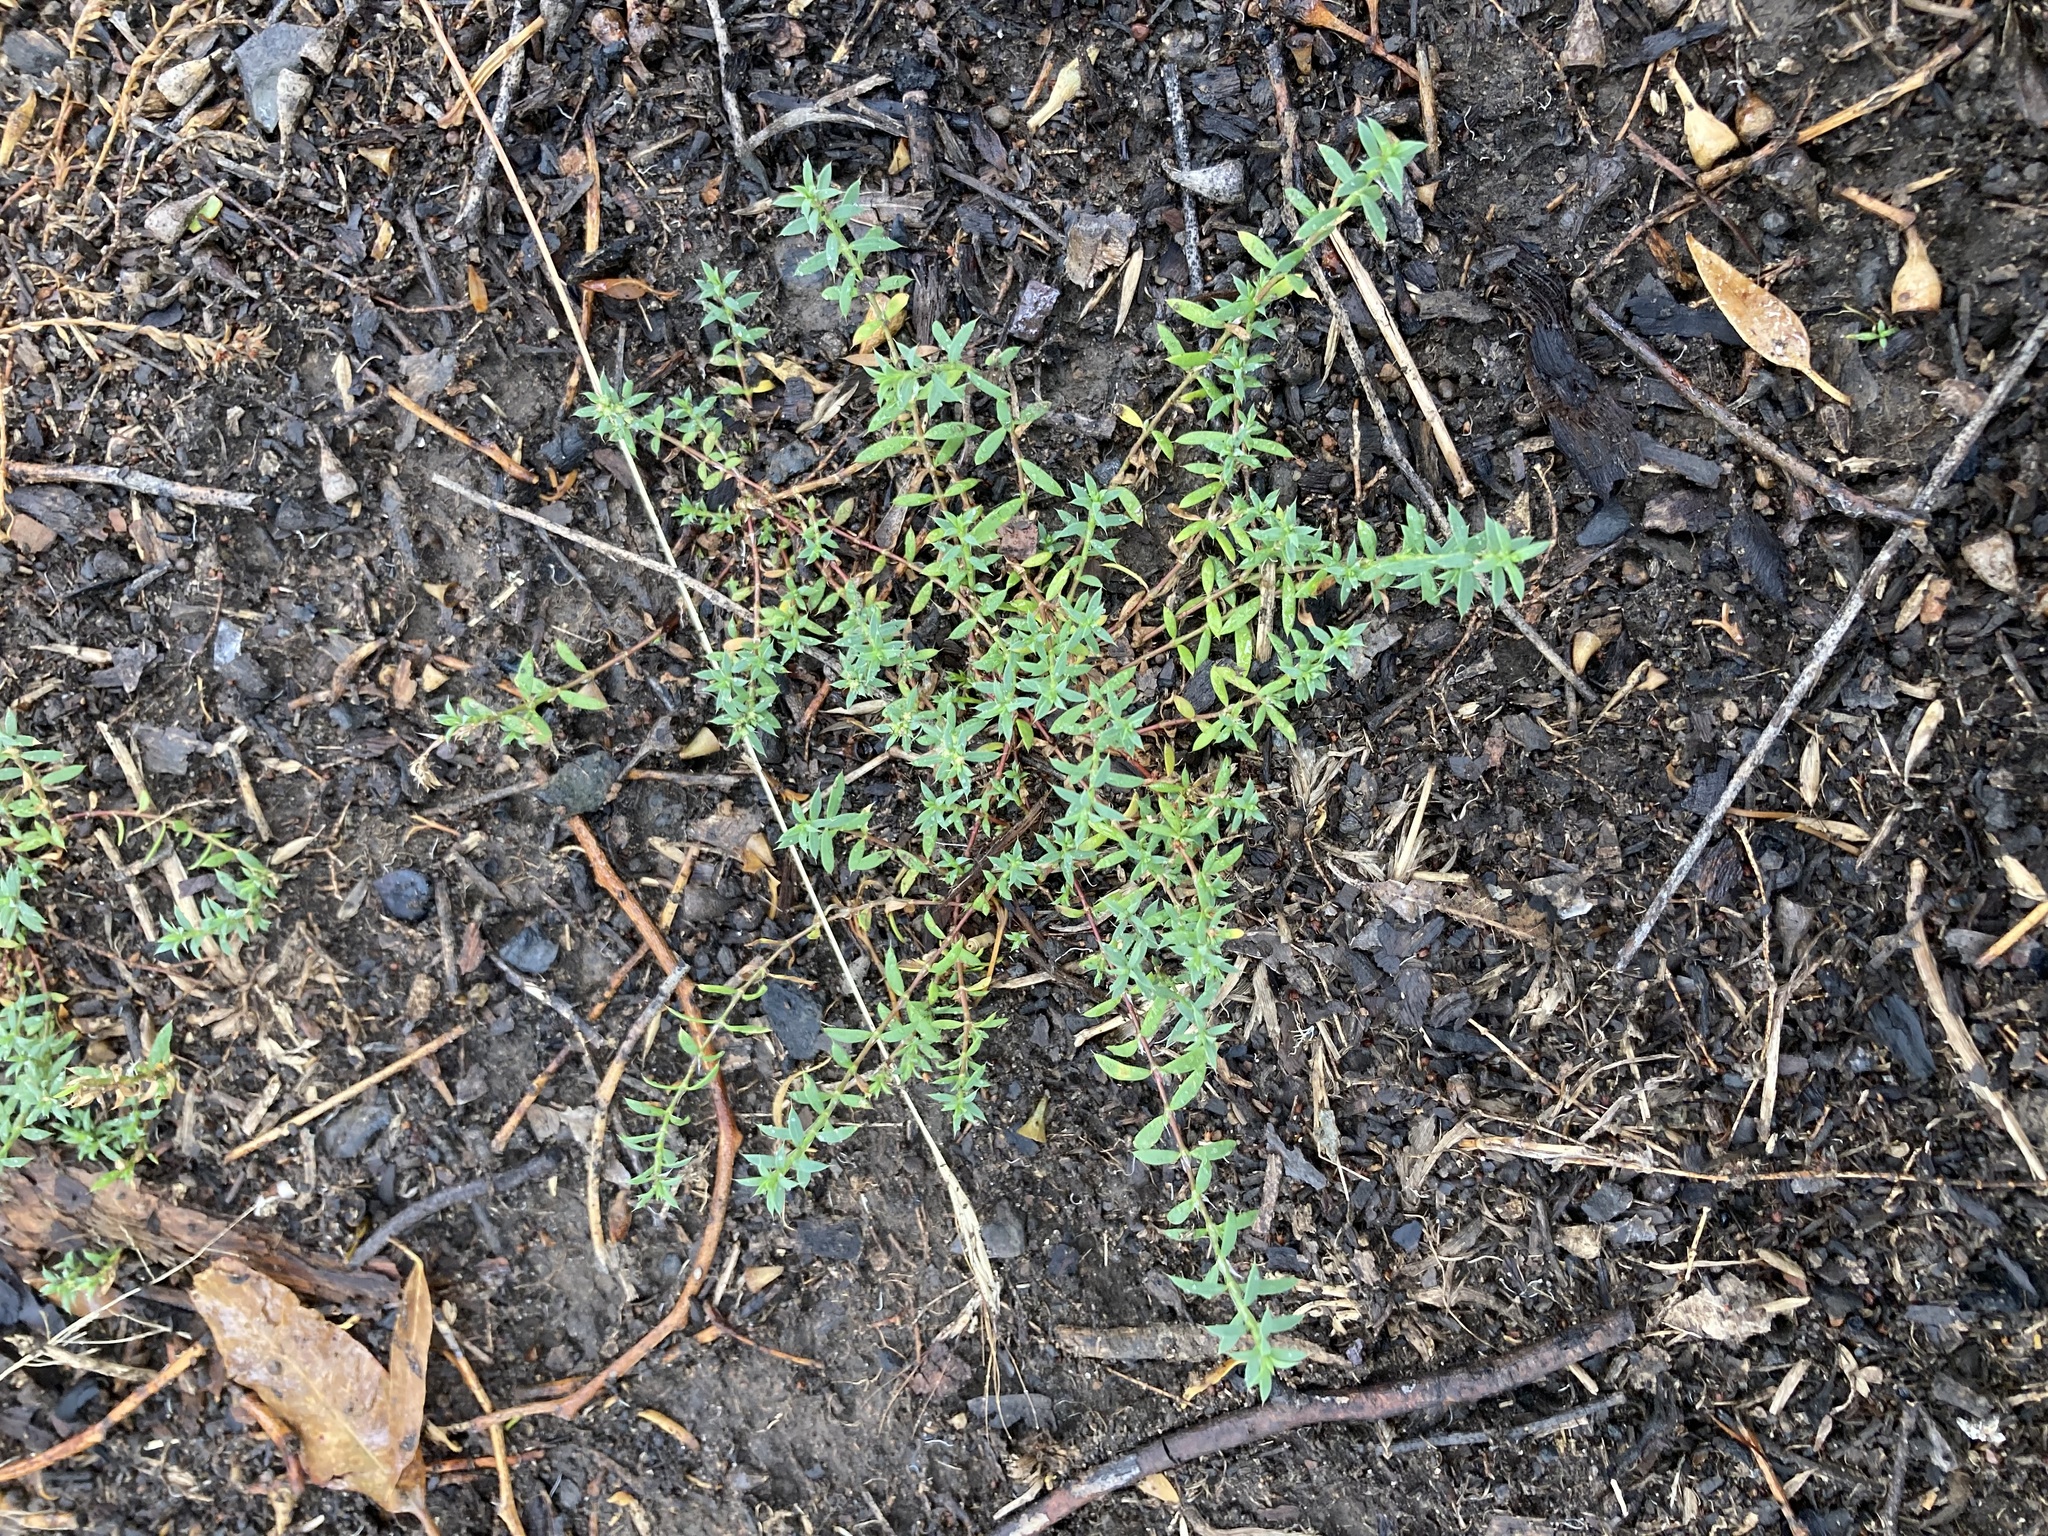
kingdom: Plantae
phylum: Tracheophyta
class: Magnoliopsida
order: Caryophyllales
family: Caryophyllaceae
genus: Paronychia
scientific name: Paronychia brasiliana
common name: Brazilian whitlow
